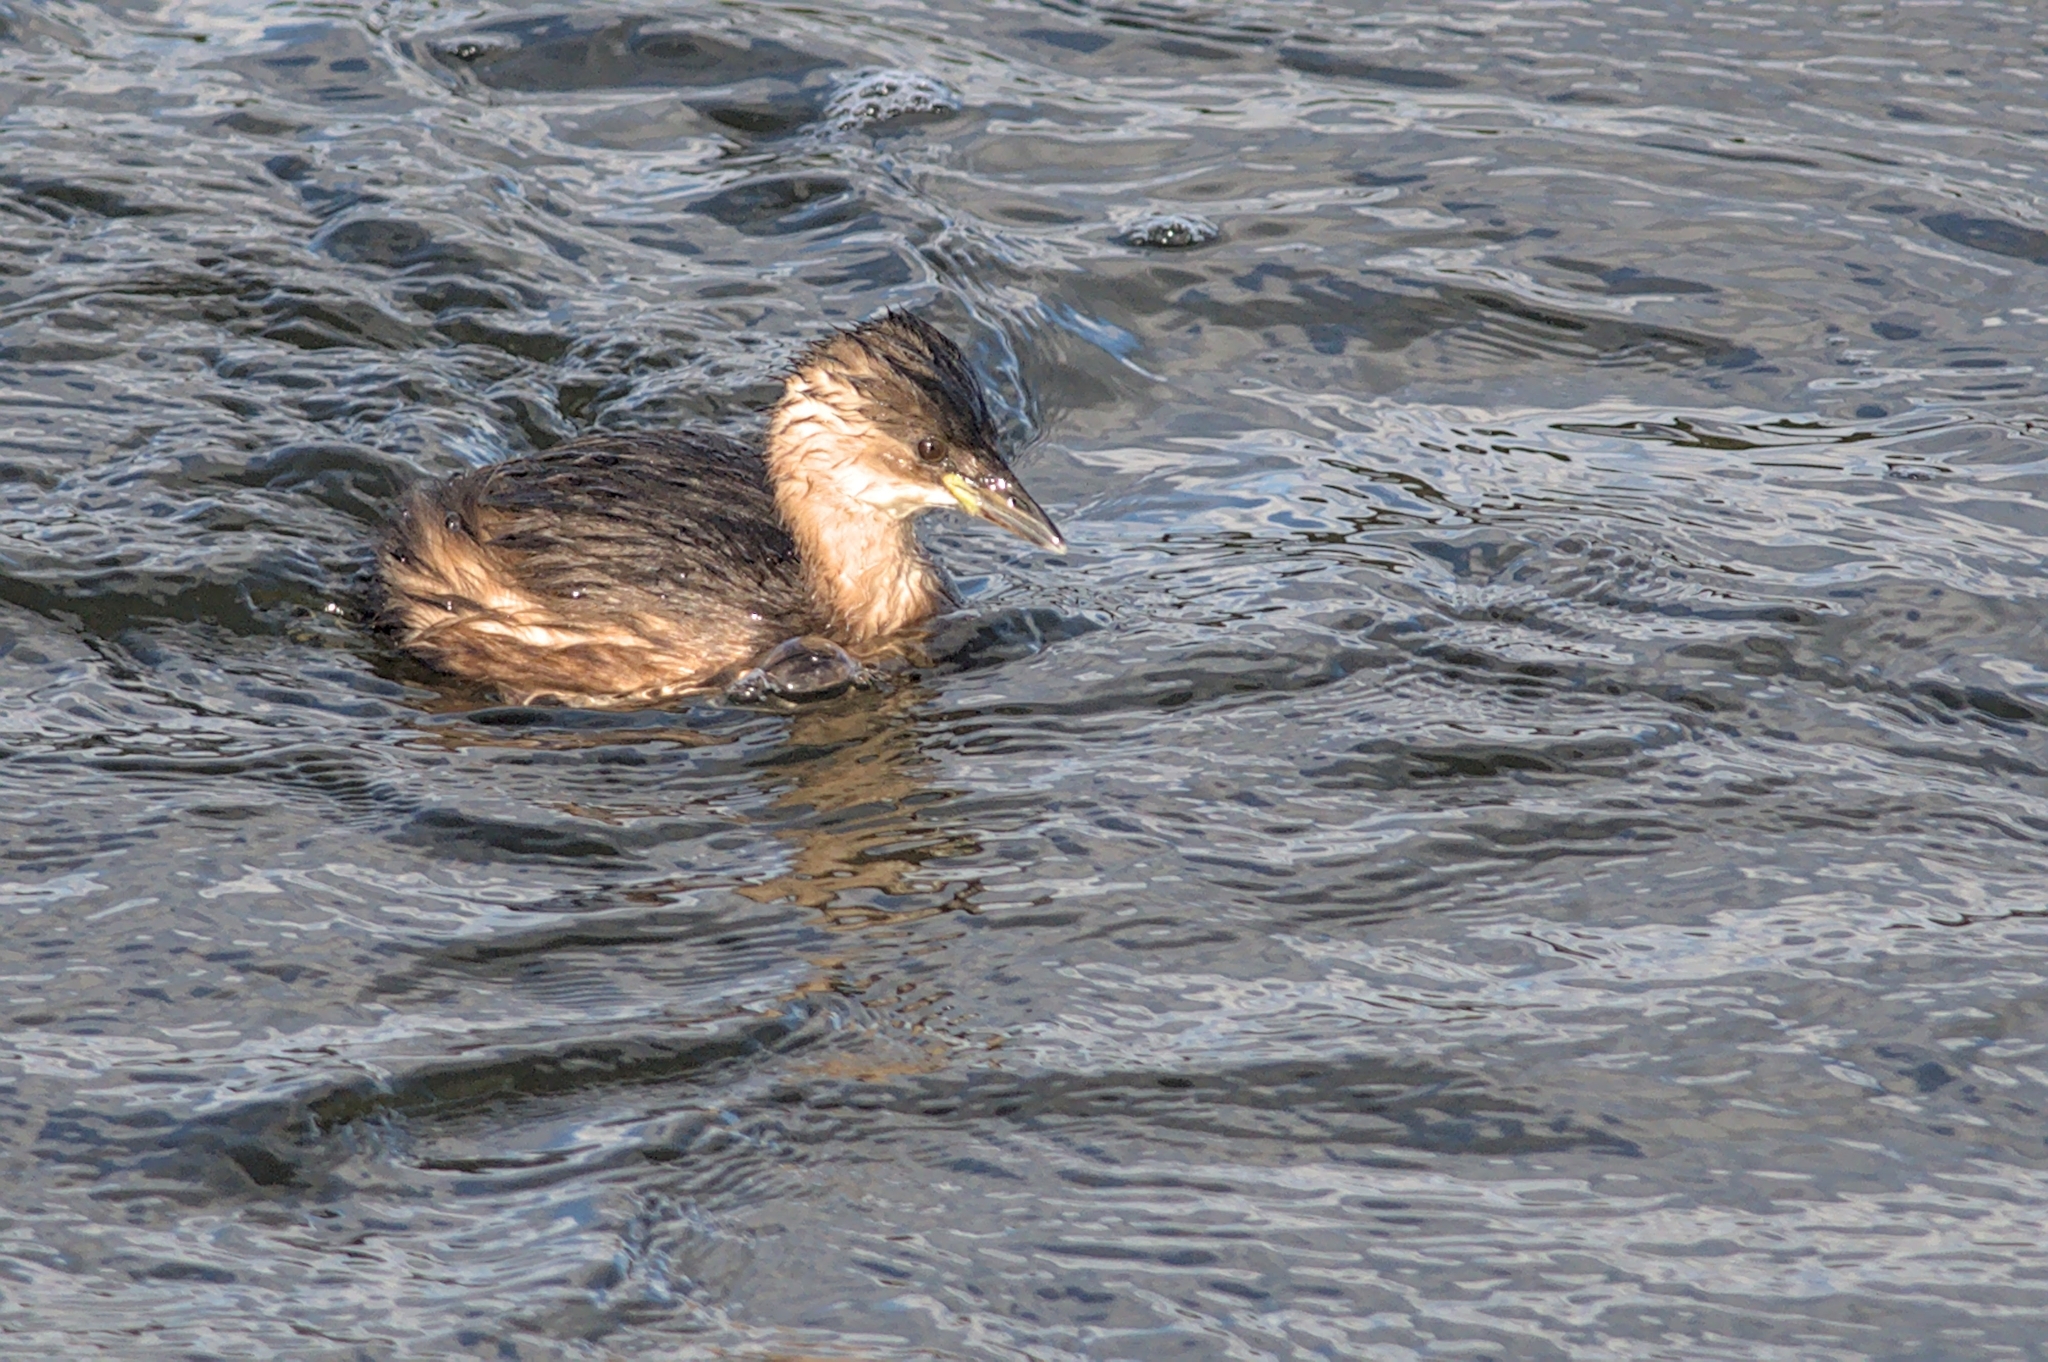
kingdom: Animalia
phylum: Chordata
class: Aves
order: Podicipediformes
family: Podicipedidae
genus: Tachybaptus
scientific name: Tachybaptus ruficollis
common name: Little grebe
